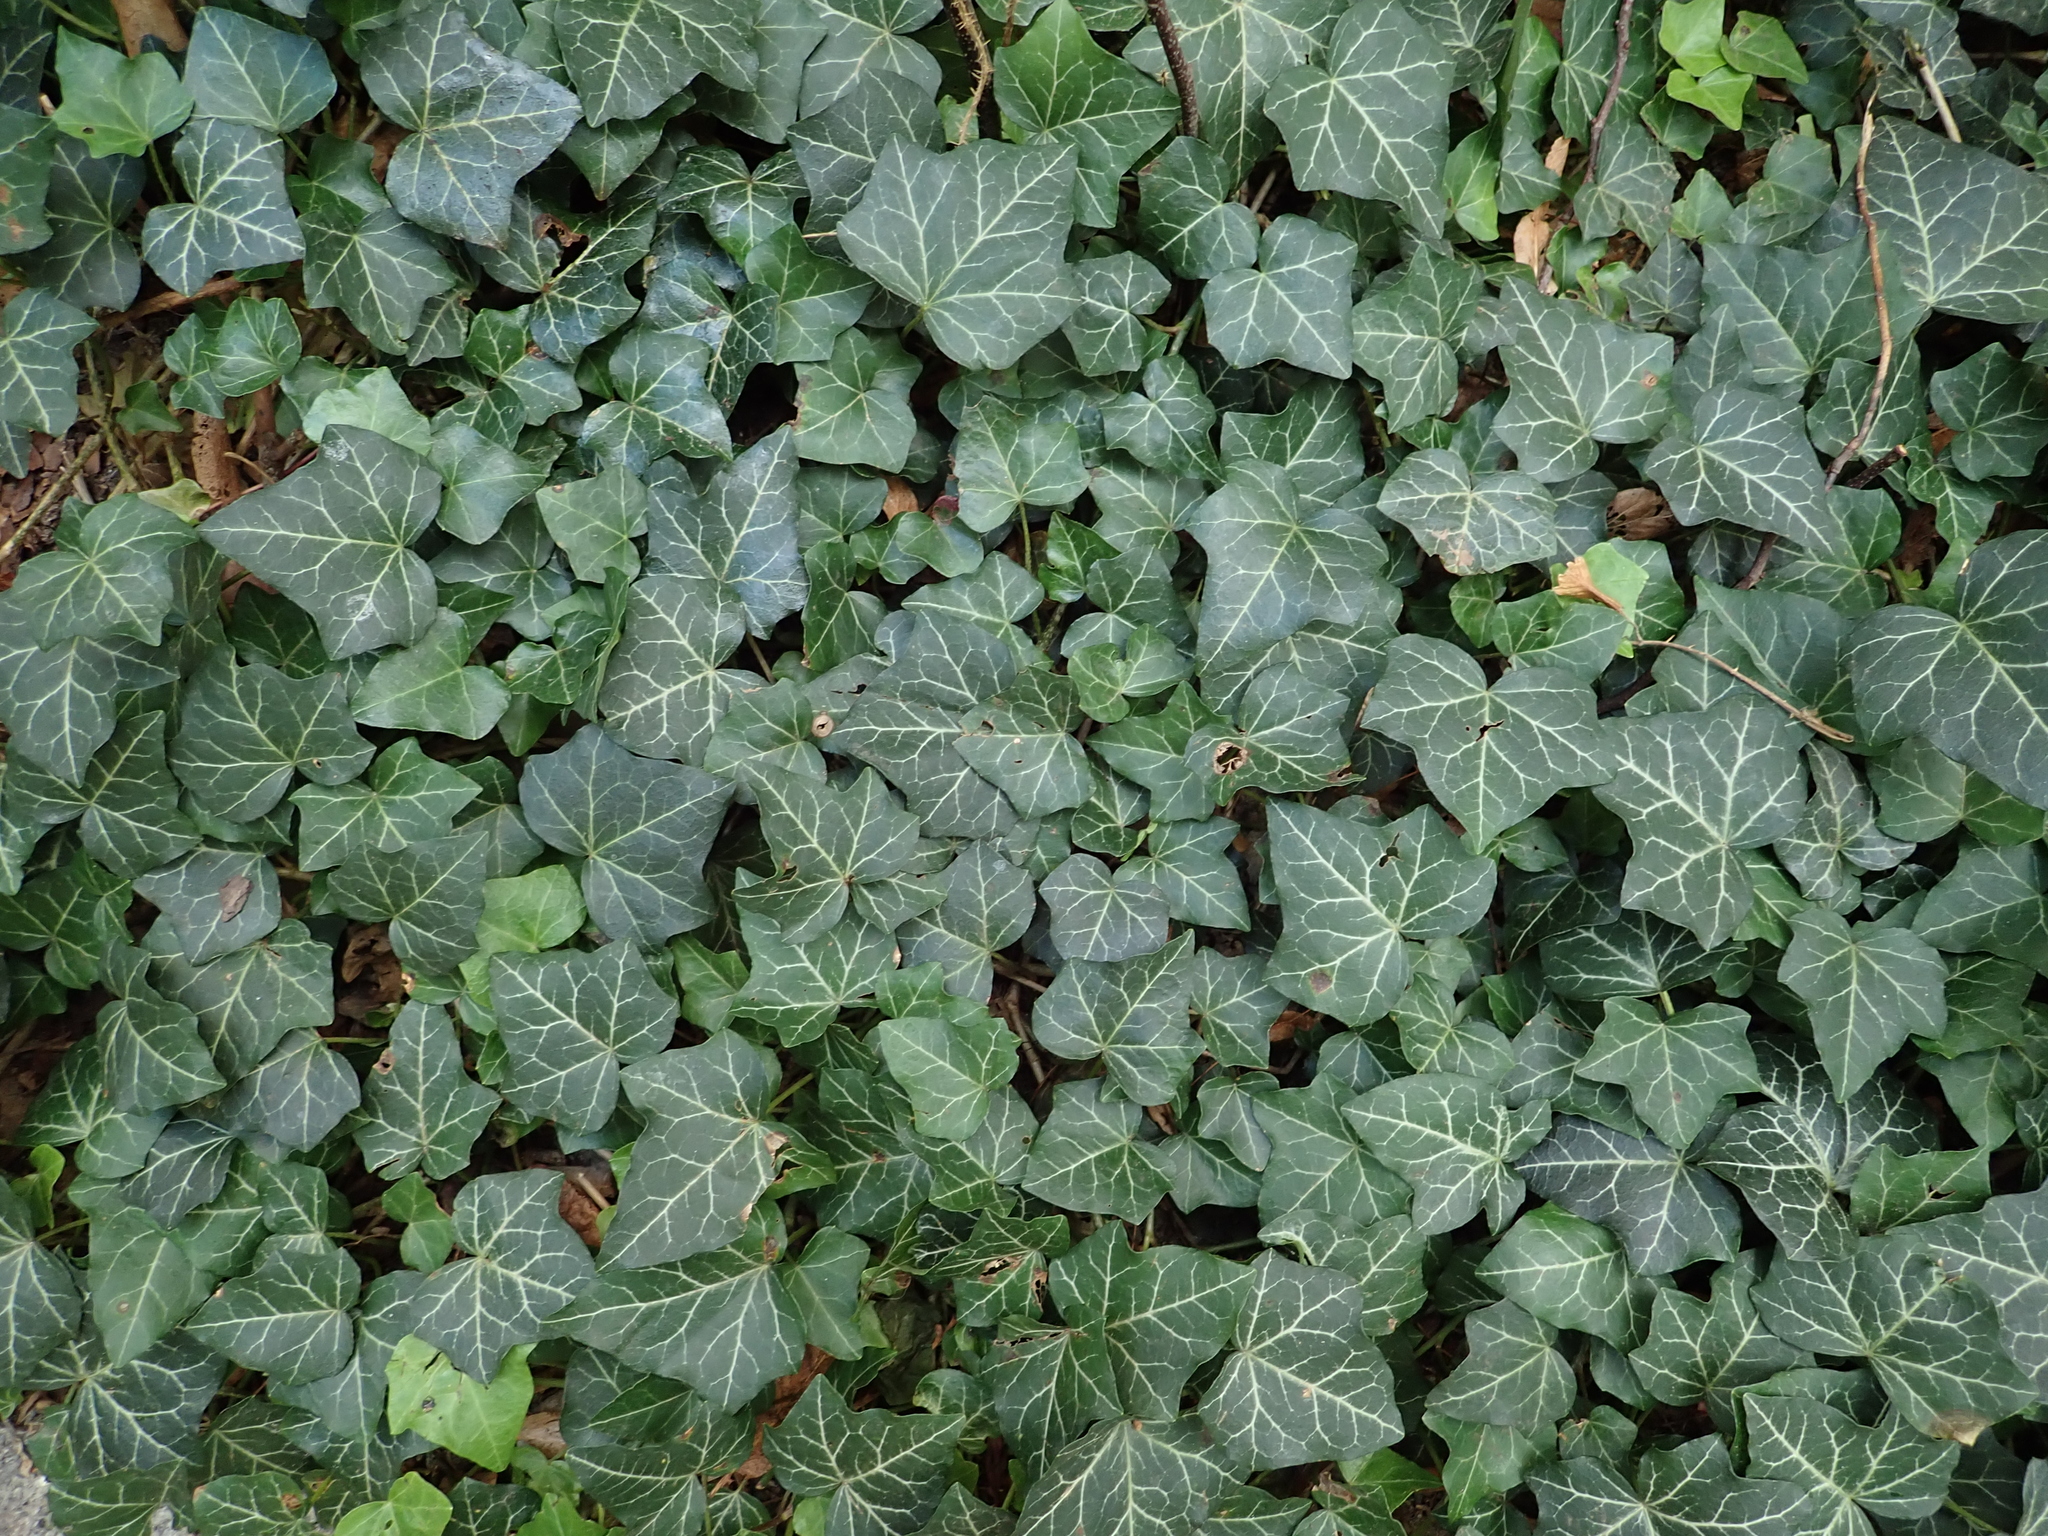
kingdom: Plantae
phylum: Tracheophyta
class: Magnoliopsida
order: Apiales
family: Araliaceae
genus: Hedera
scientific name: Hedera helix
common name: Ivy
